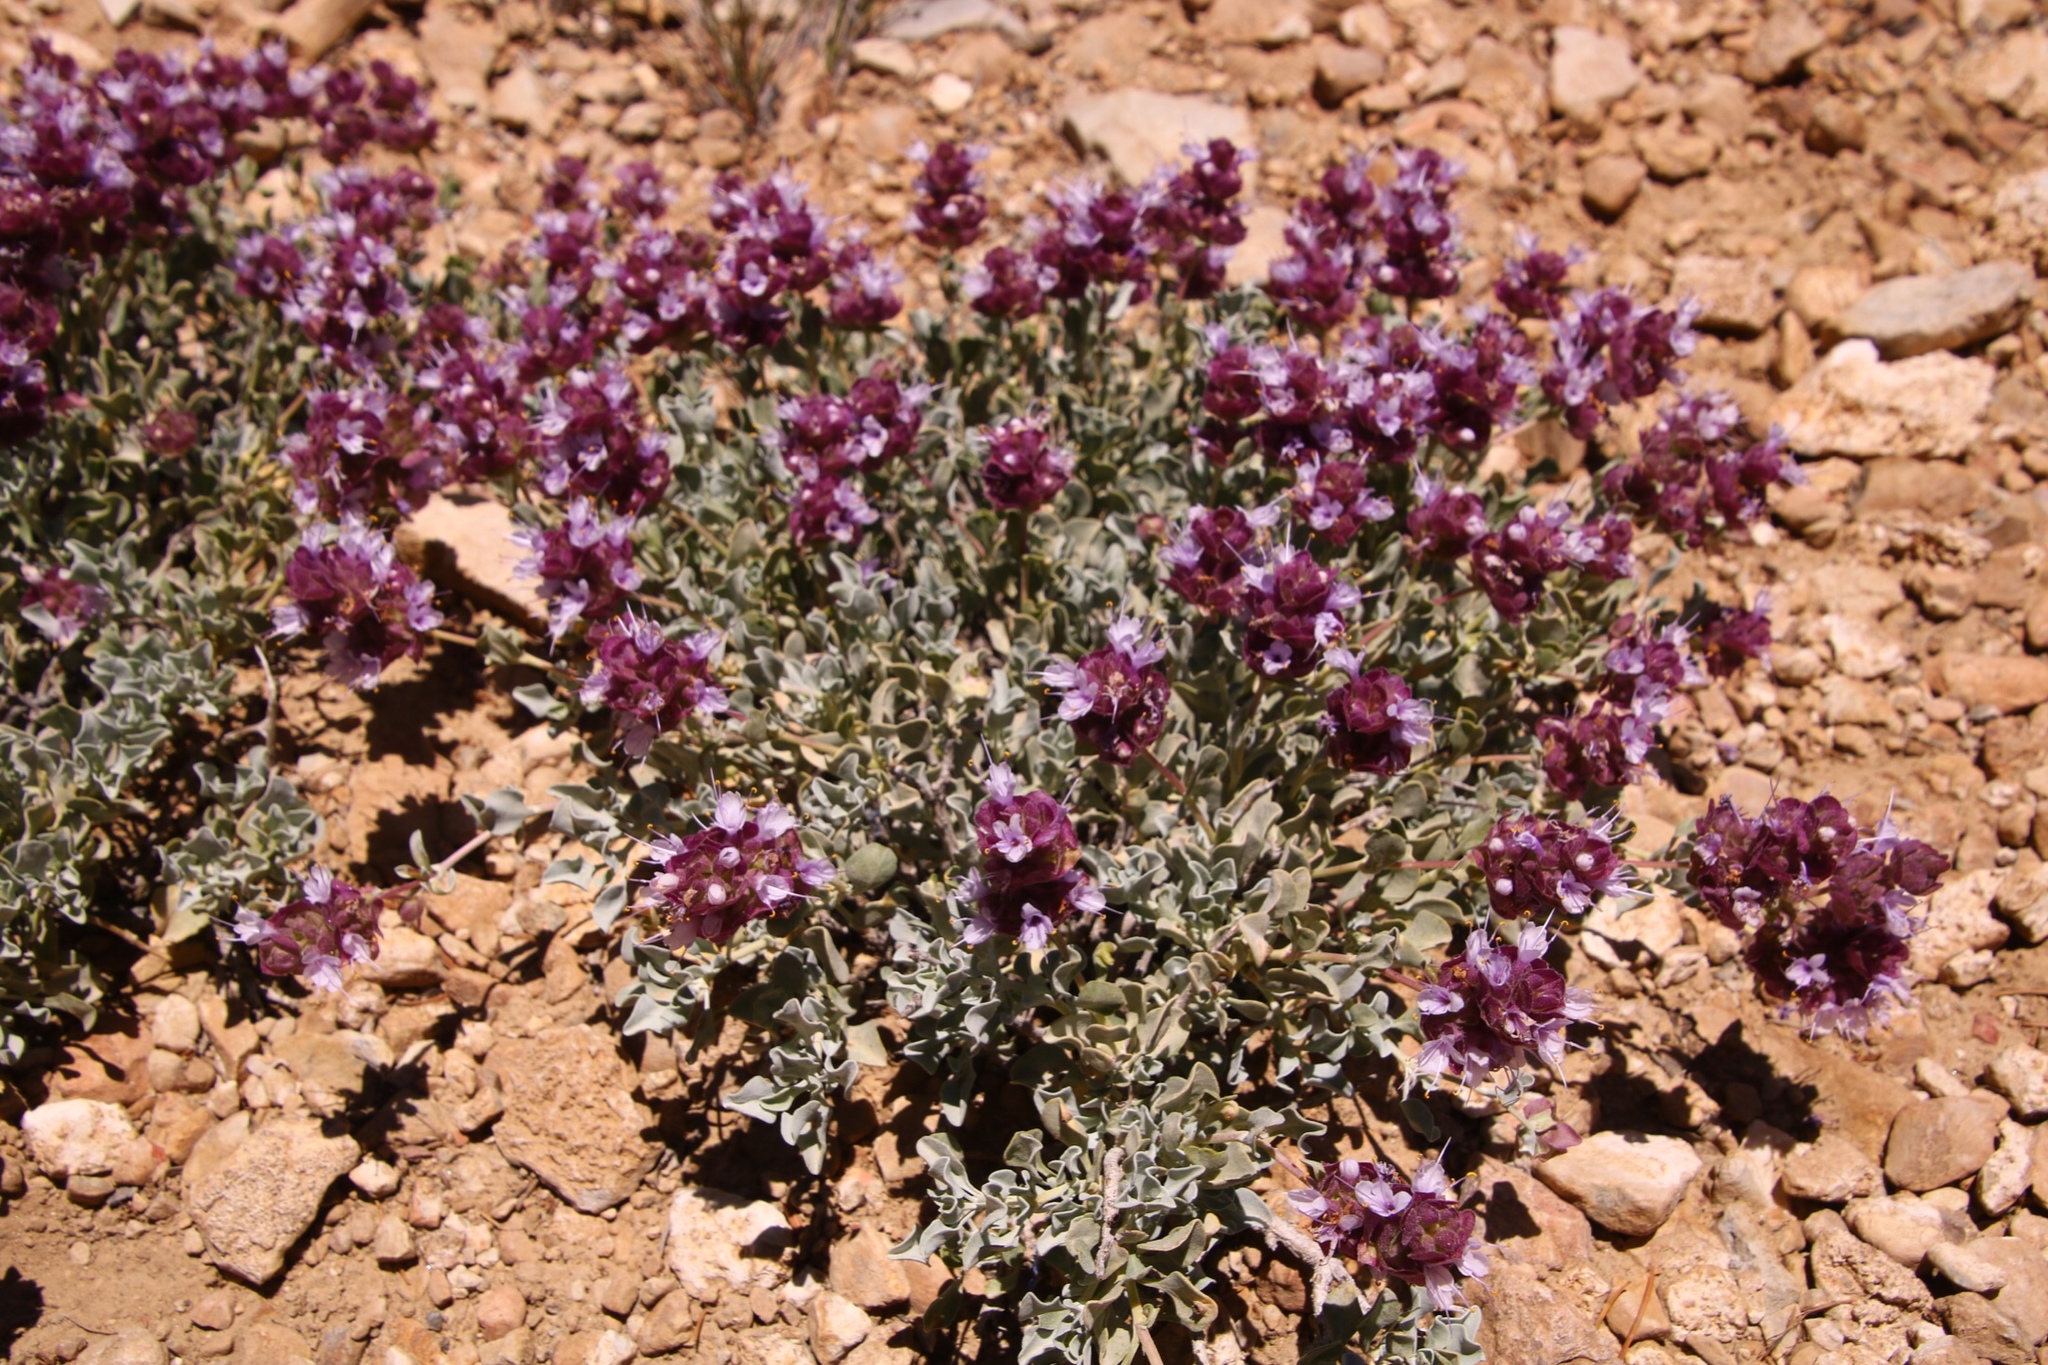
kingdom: Plantae
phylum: Tracheophyta
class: Magnoliopsida
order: Lamiales
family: Lamiaceae
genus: Salvia
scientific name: Salvia dorrii
